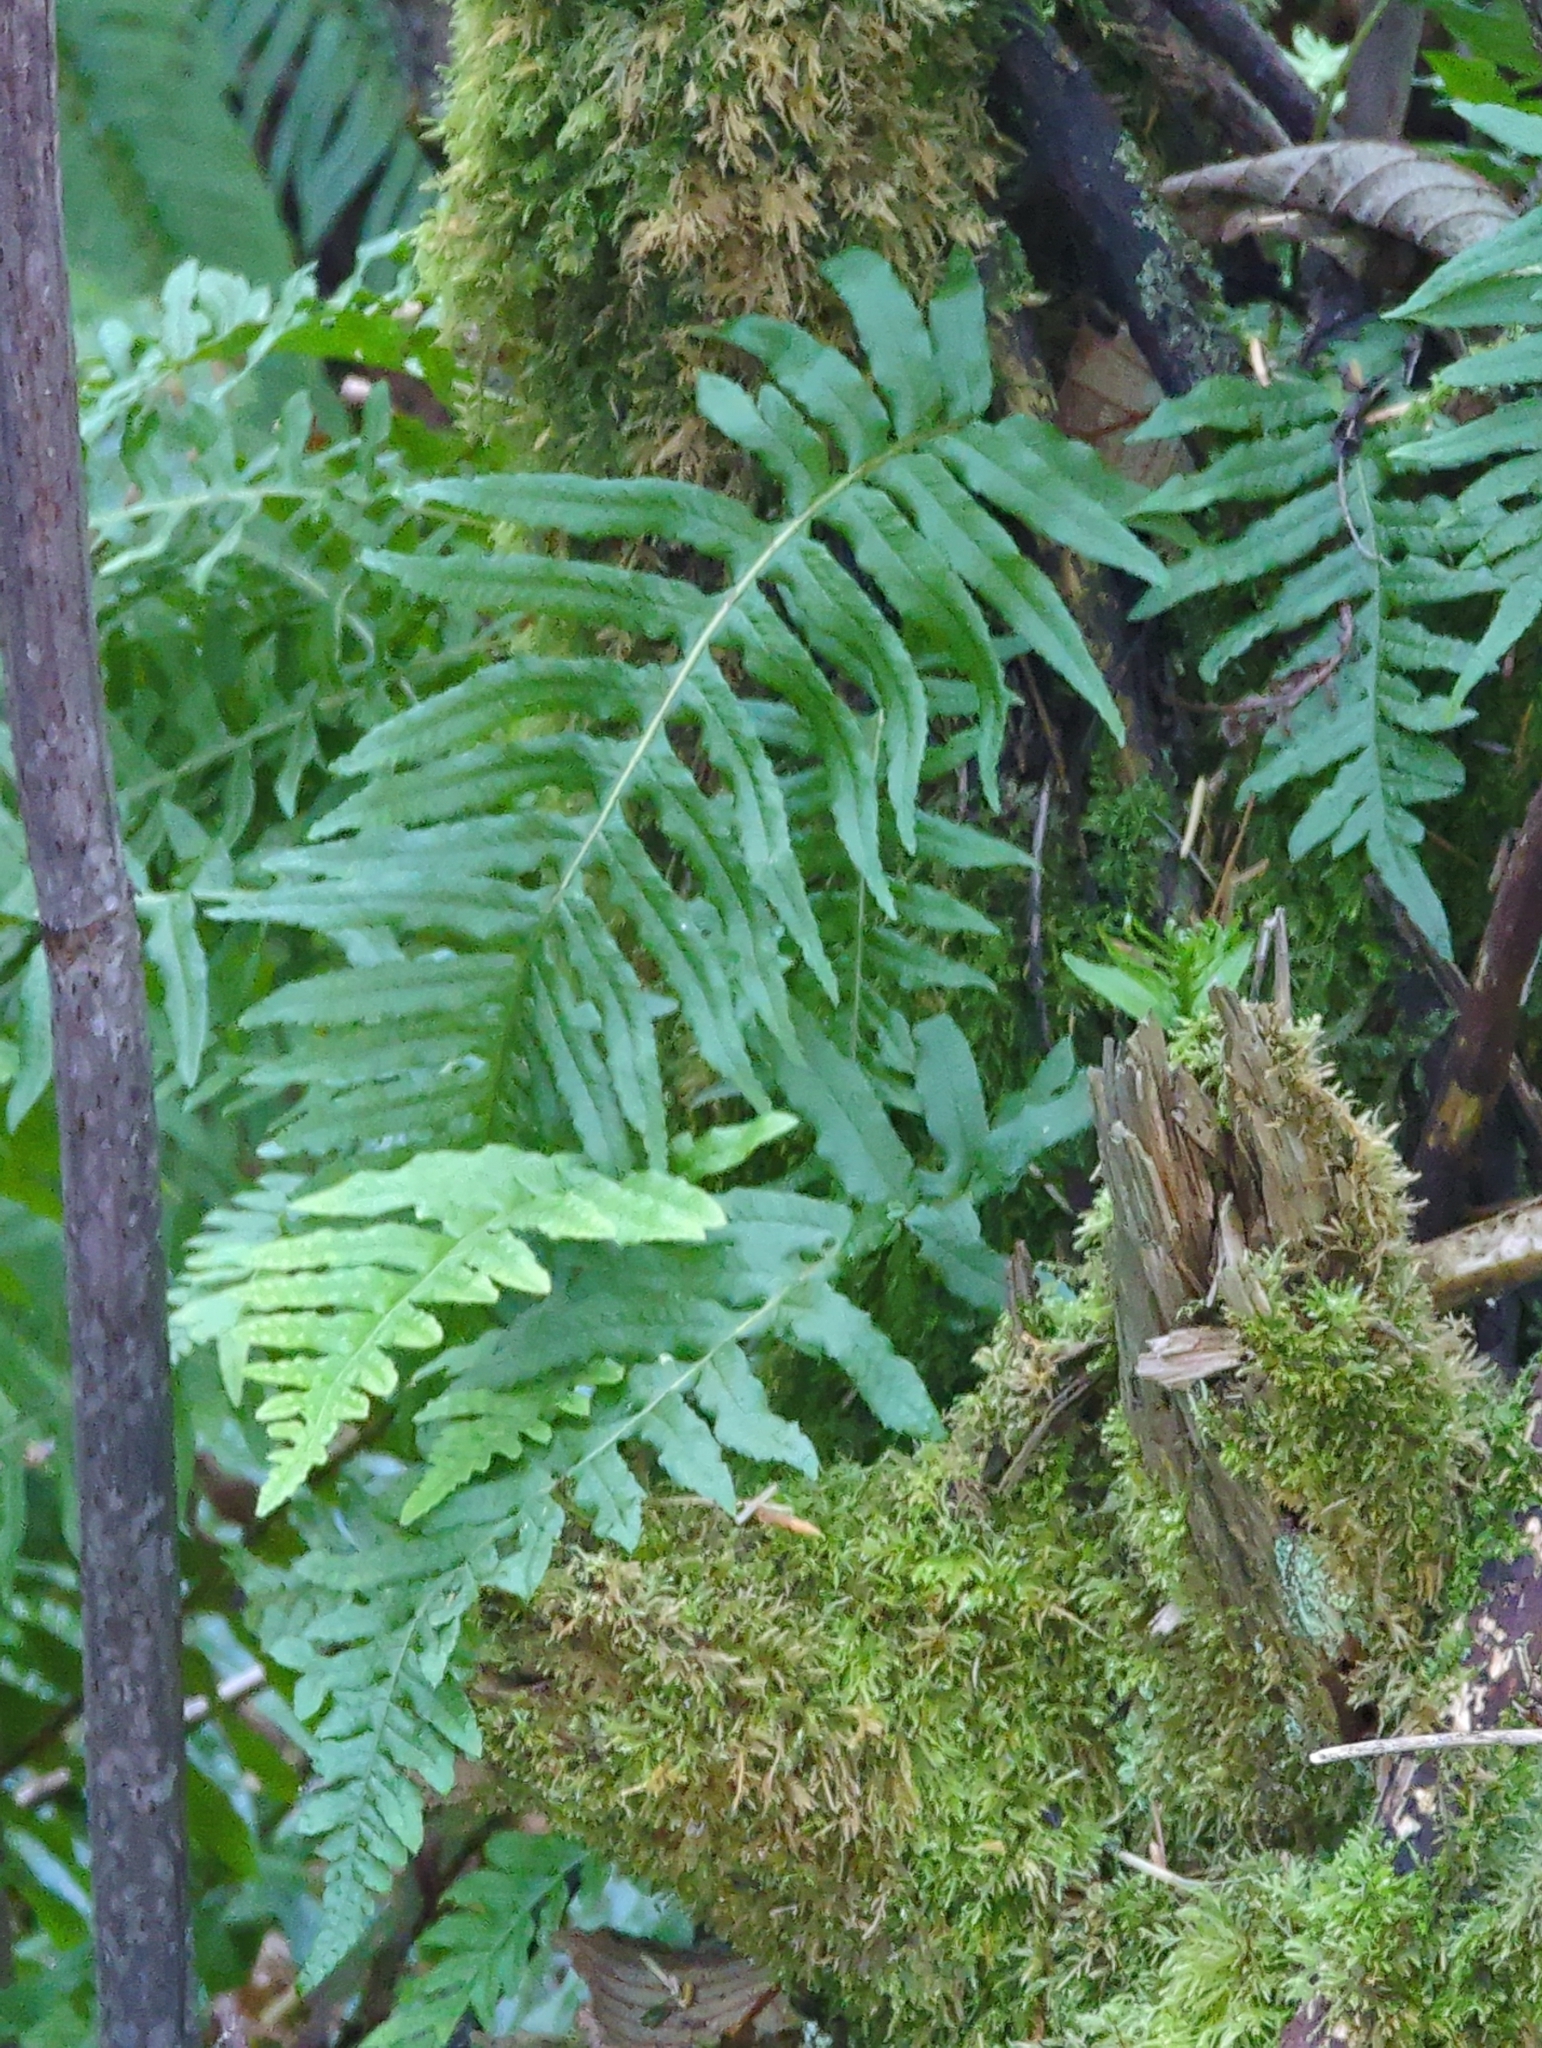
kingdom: Plantae
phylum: Tracheophyta
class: Polypodiopsida
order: Polypodiales
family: Polypodiaceae
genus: Polypodium
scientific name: Polypodium glycyrrhiza
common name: Licorice fern
